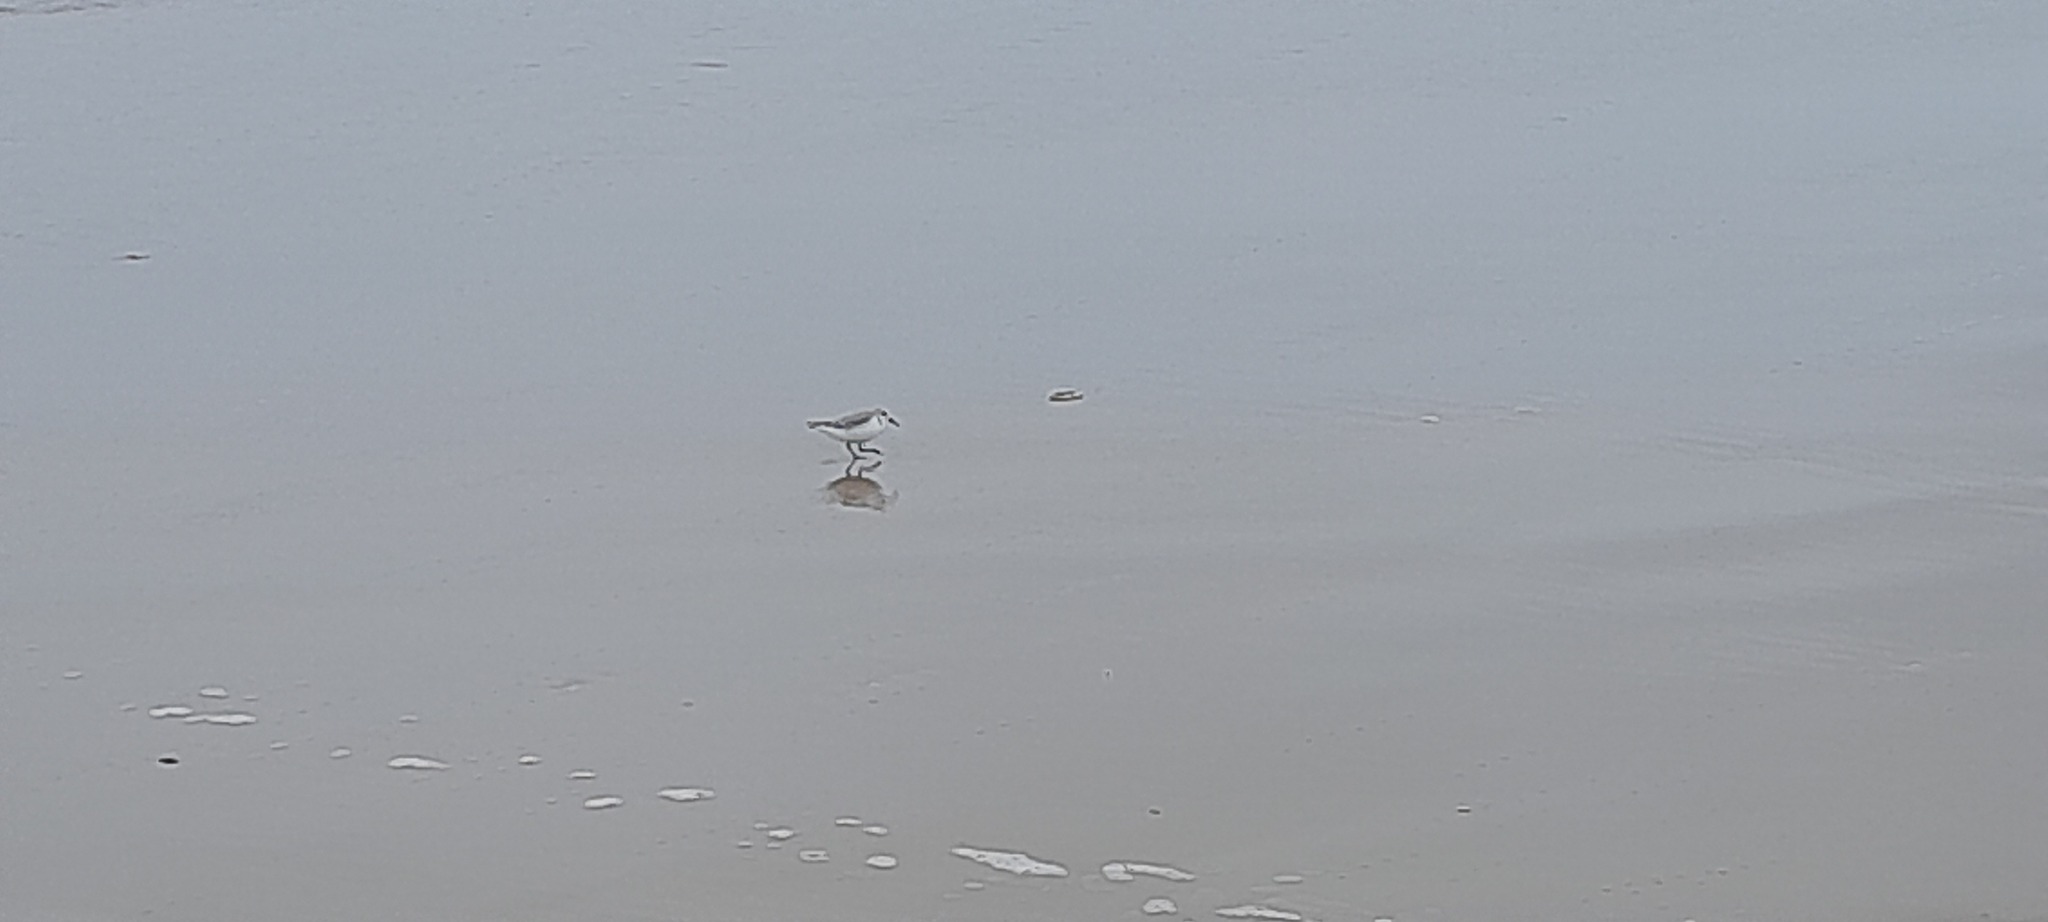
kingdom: Animalia
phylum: Chordata
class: Aves
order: Charadriiformes
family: Scolopacidae
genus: Calidris
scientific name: Calidris alba
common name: Sanderling
